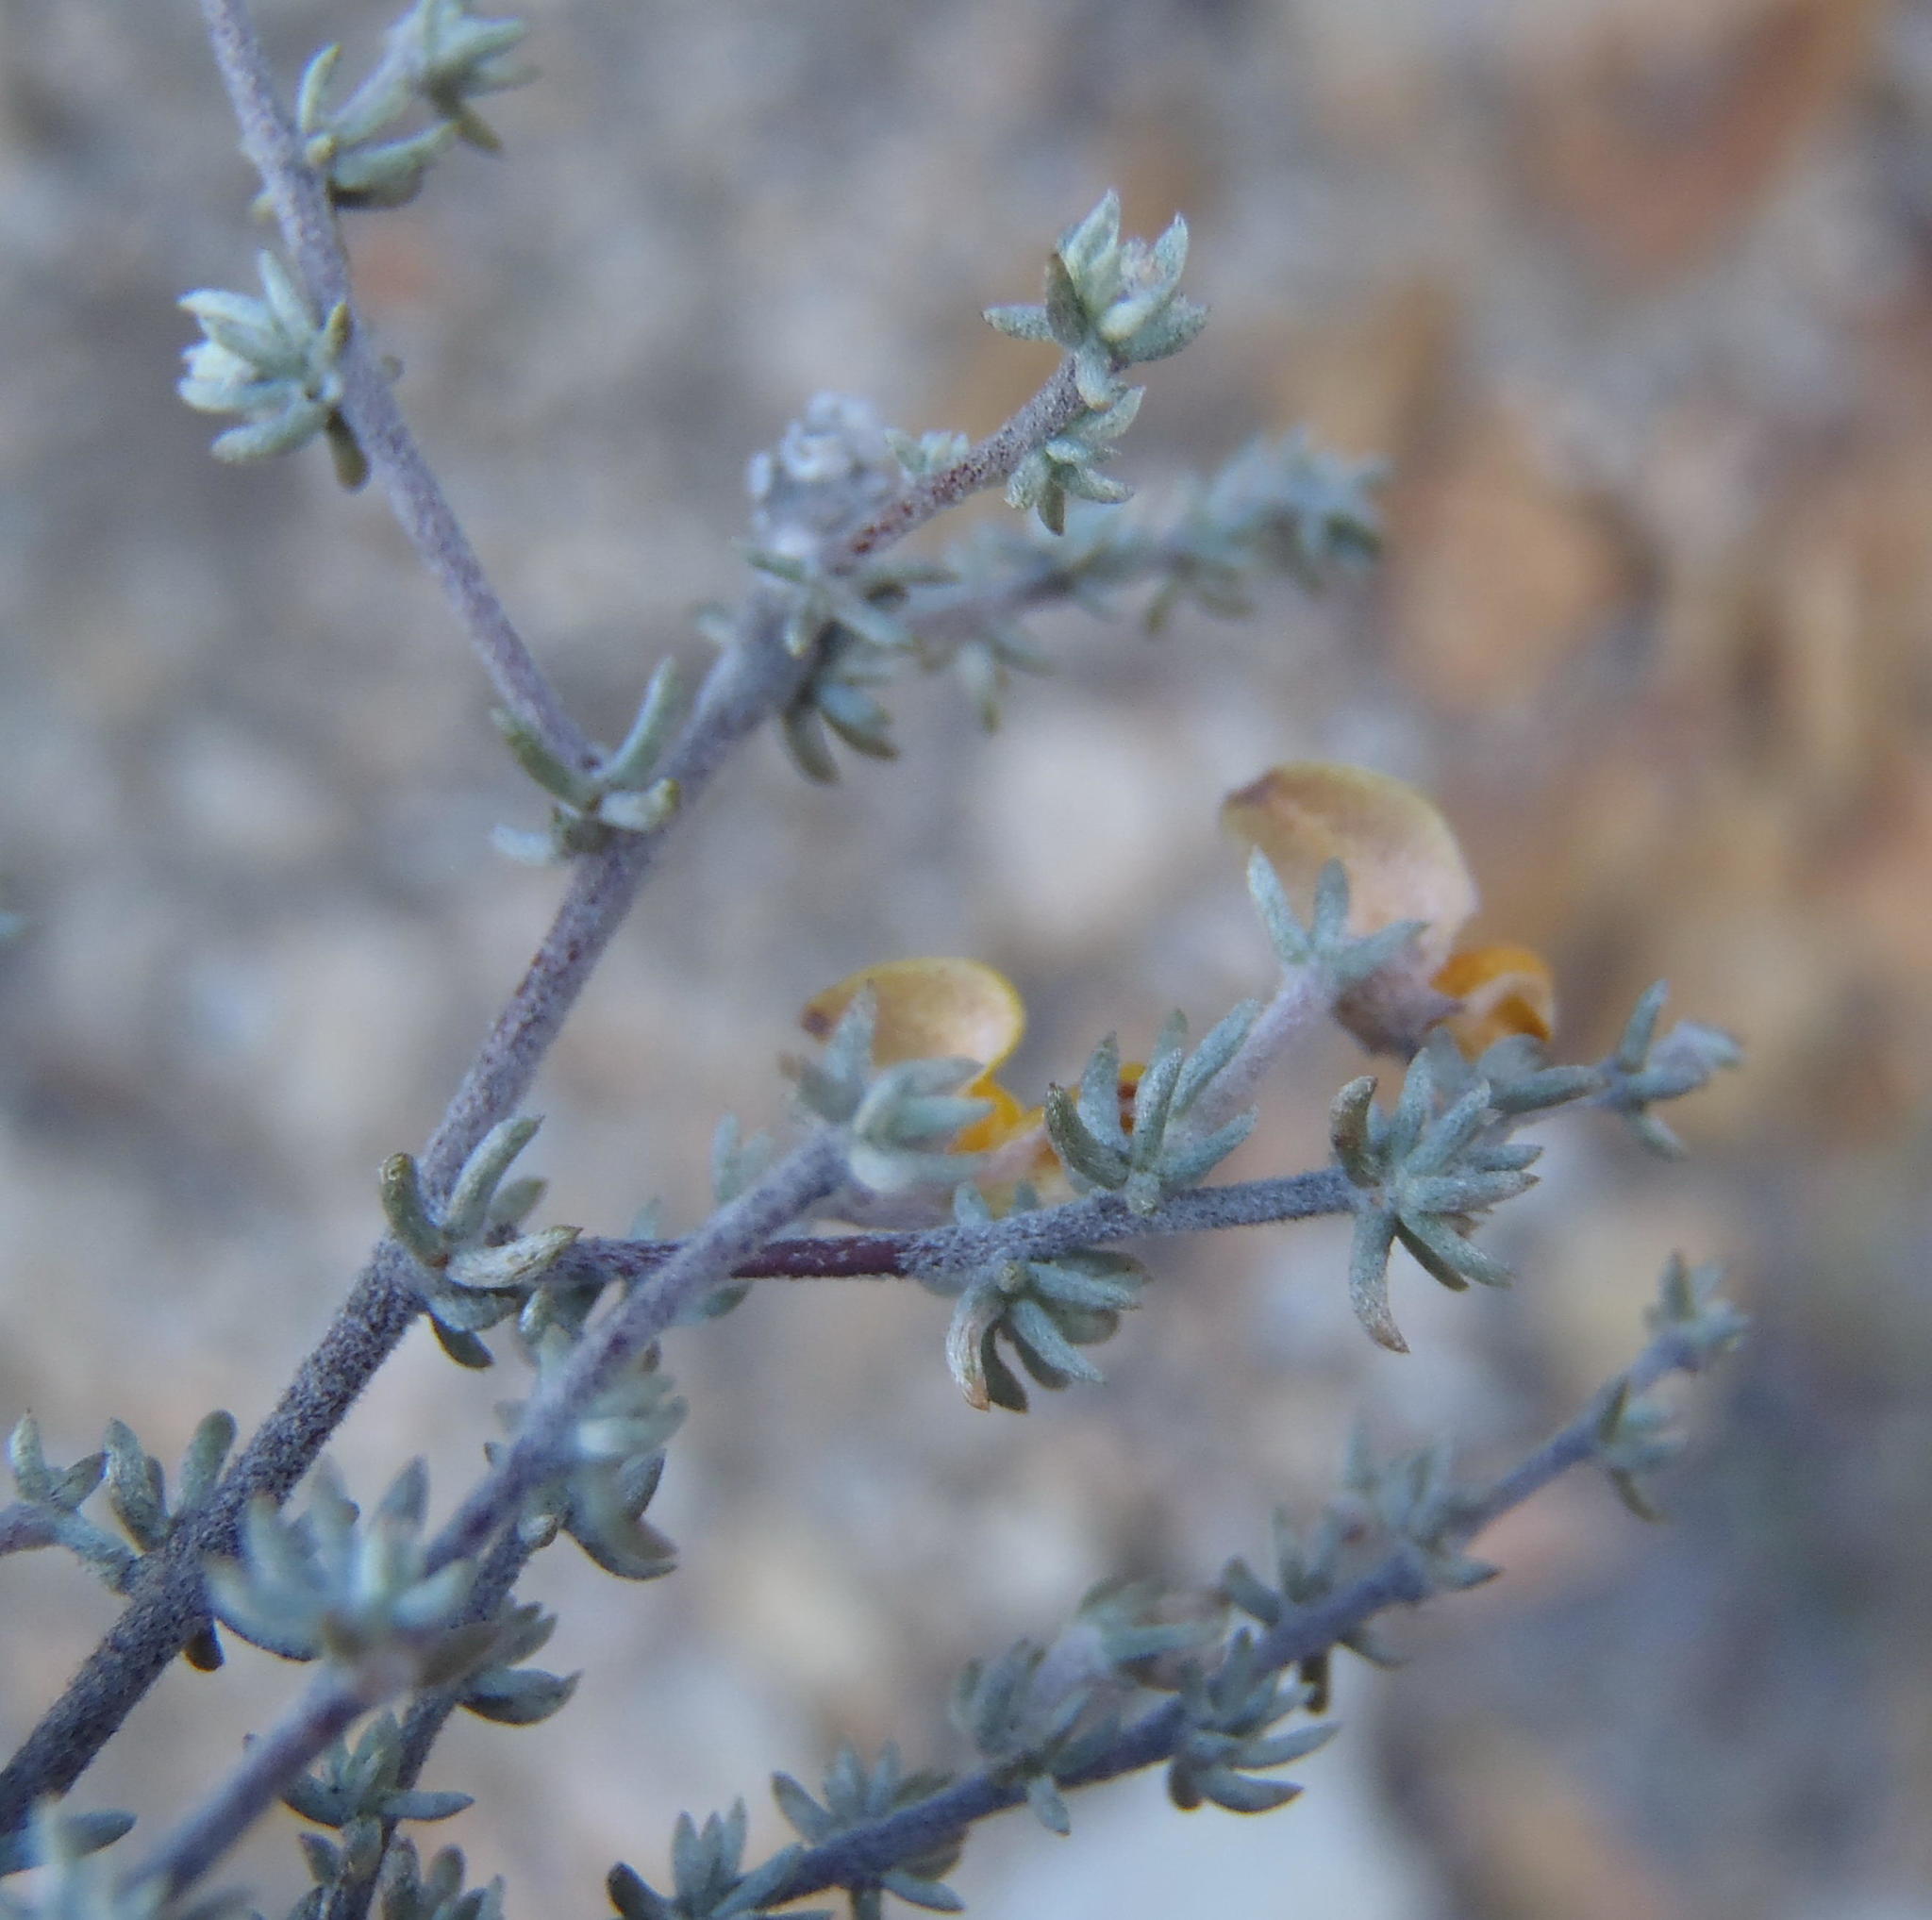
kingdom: Plantae
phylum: Tracheophyta
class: Magnoliopsida
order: Fabales
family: Fabaceae
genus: Aspalathus
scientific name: Aspalathus rubens
